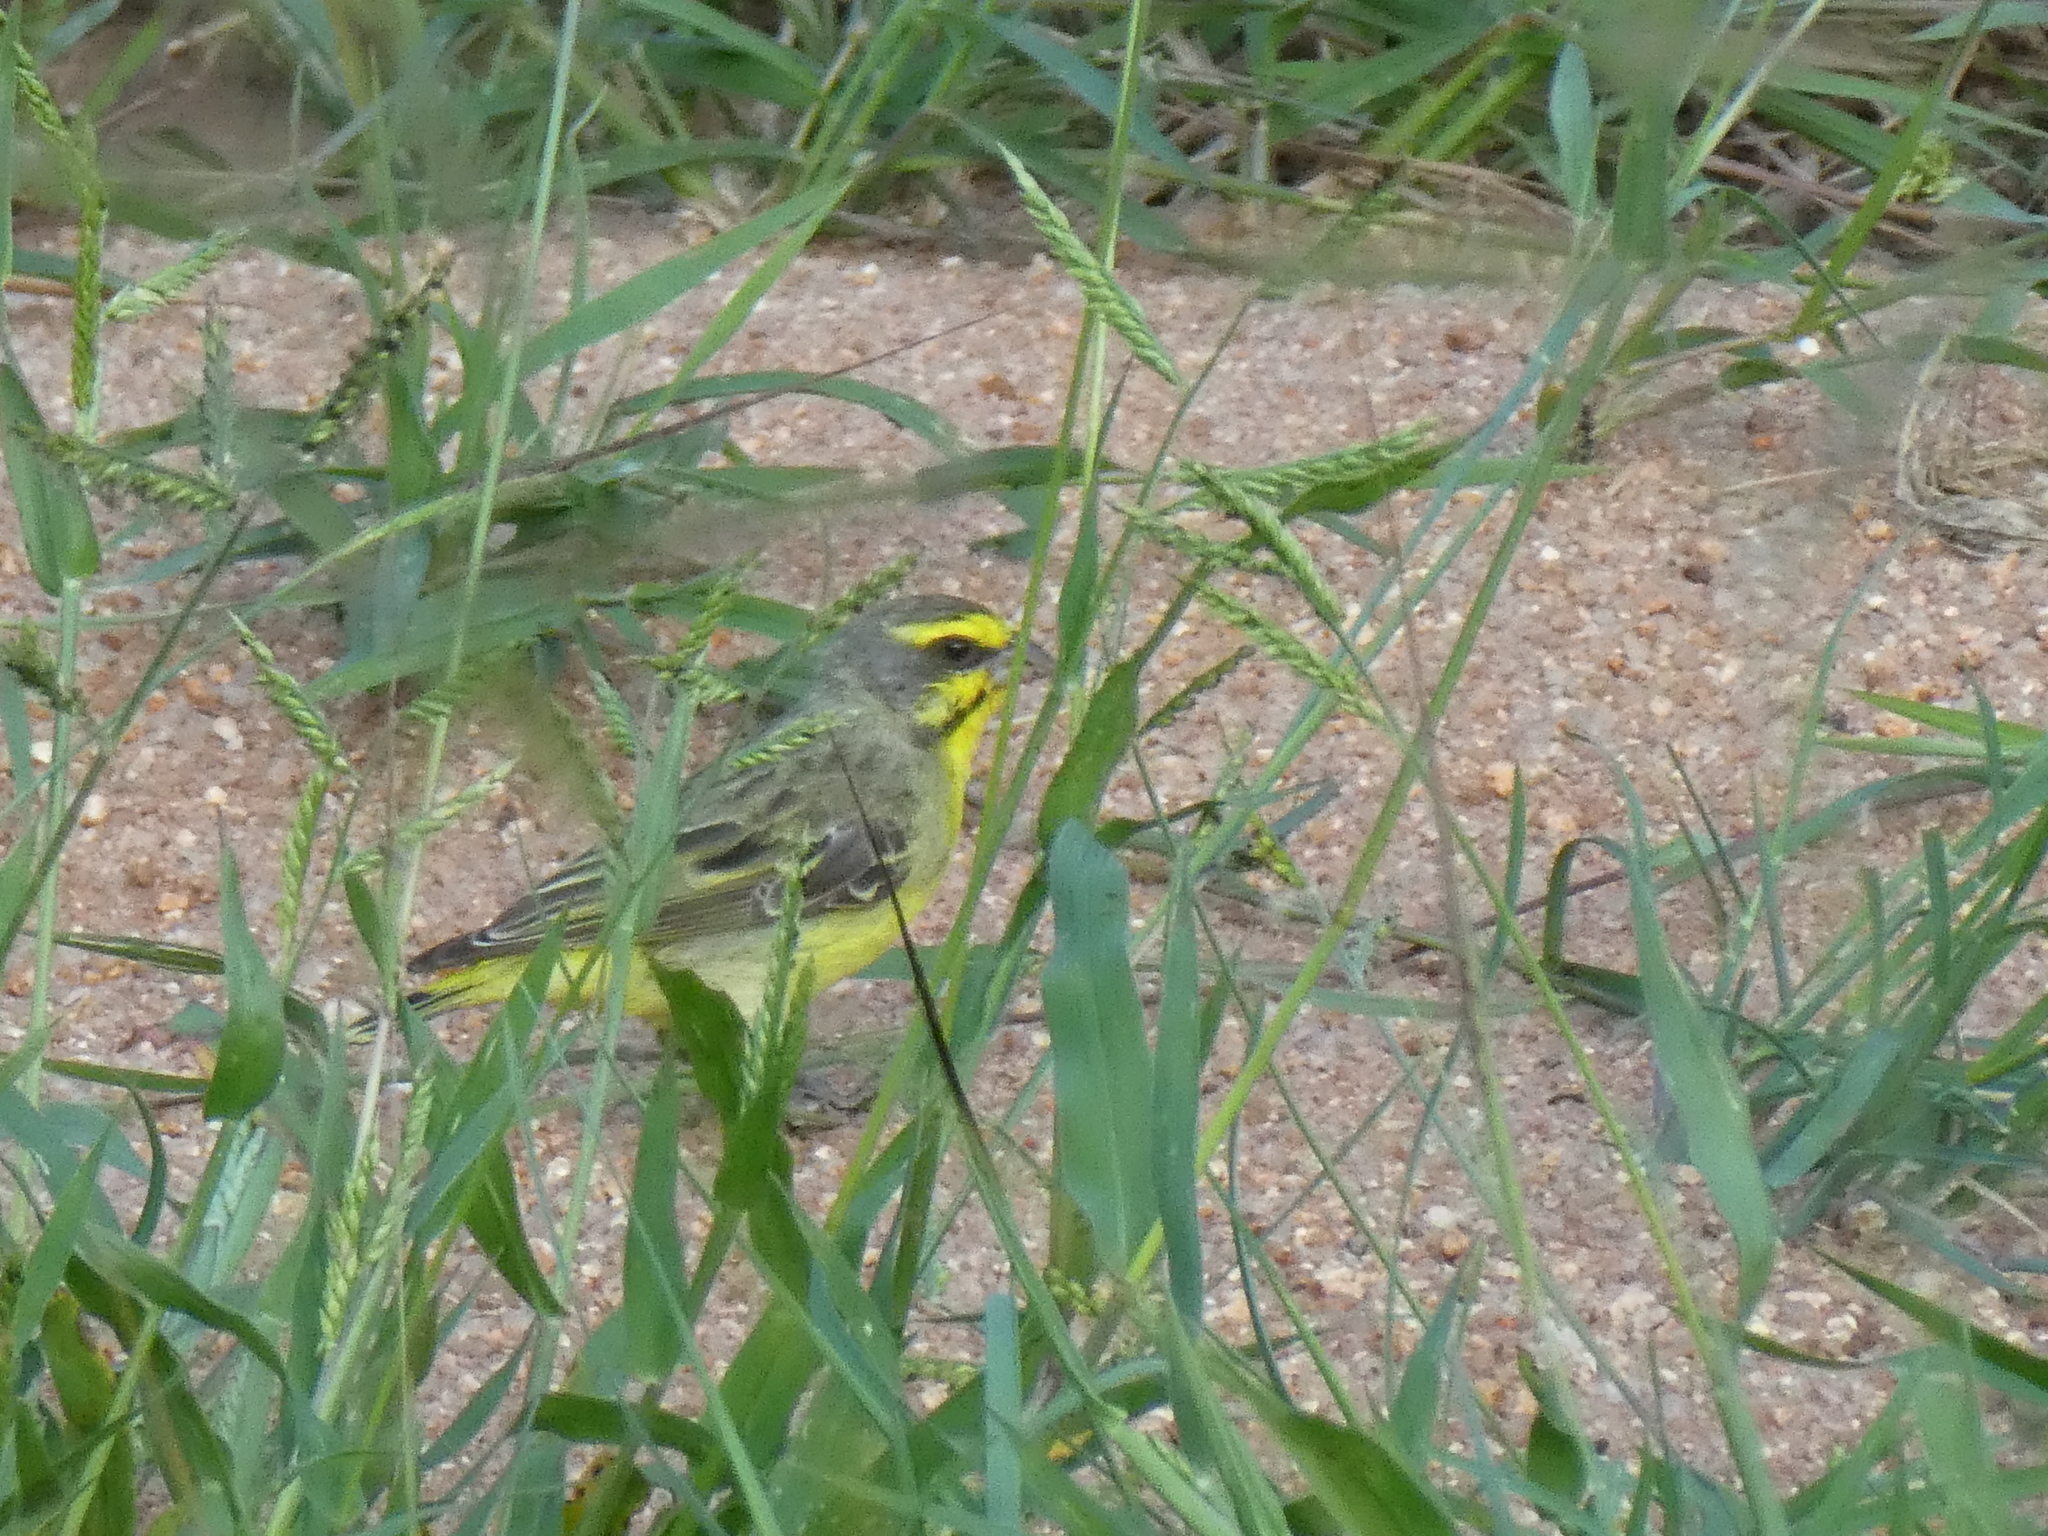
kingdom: Animalia
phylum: Chordata
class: Aves
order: Passeriformes
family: Fringillidae
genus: Crithagra
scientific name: Crithagra mozambica
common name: Yellow-fronted canary
